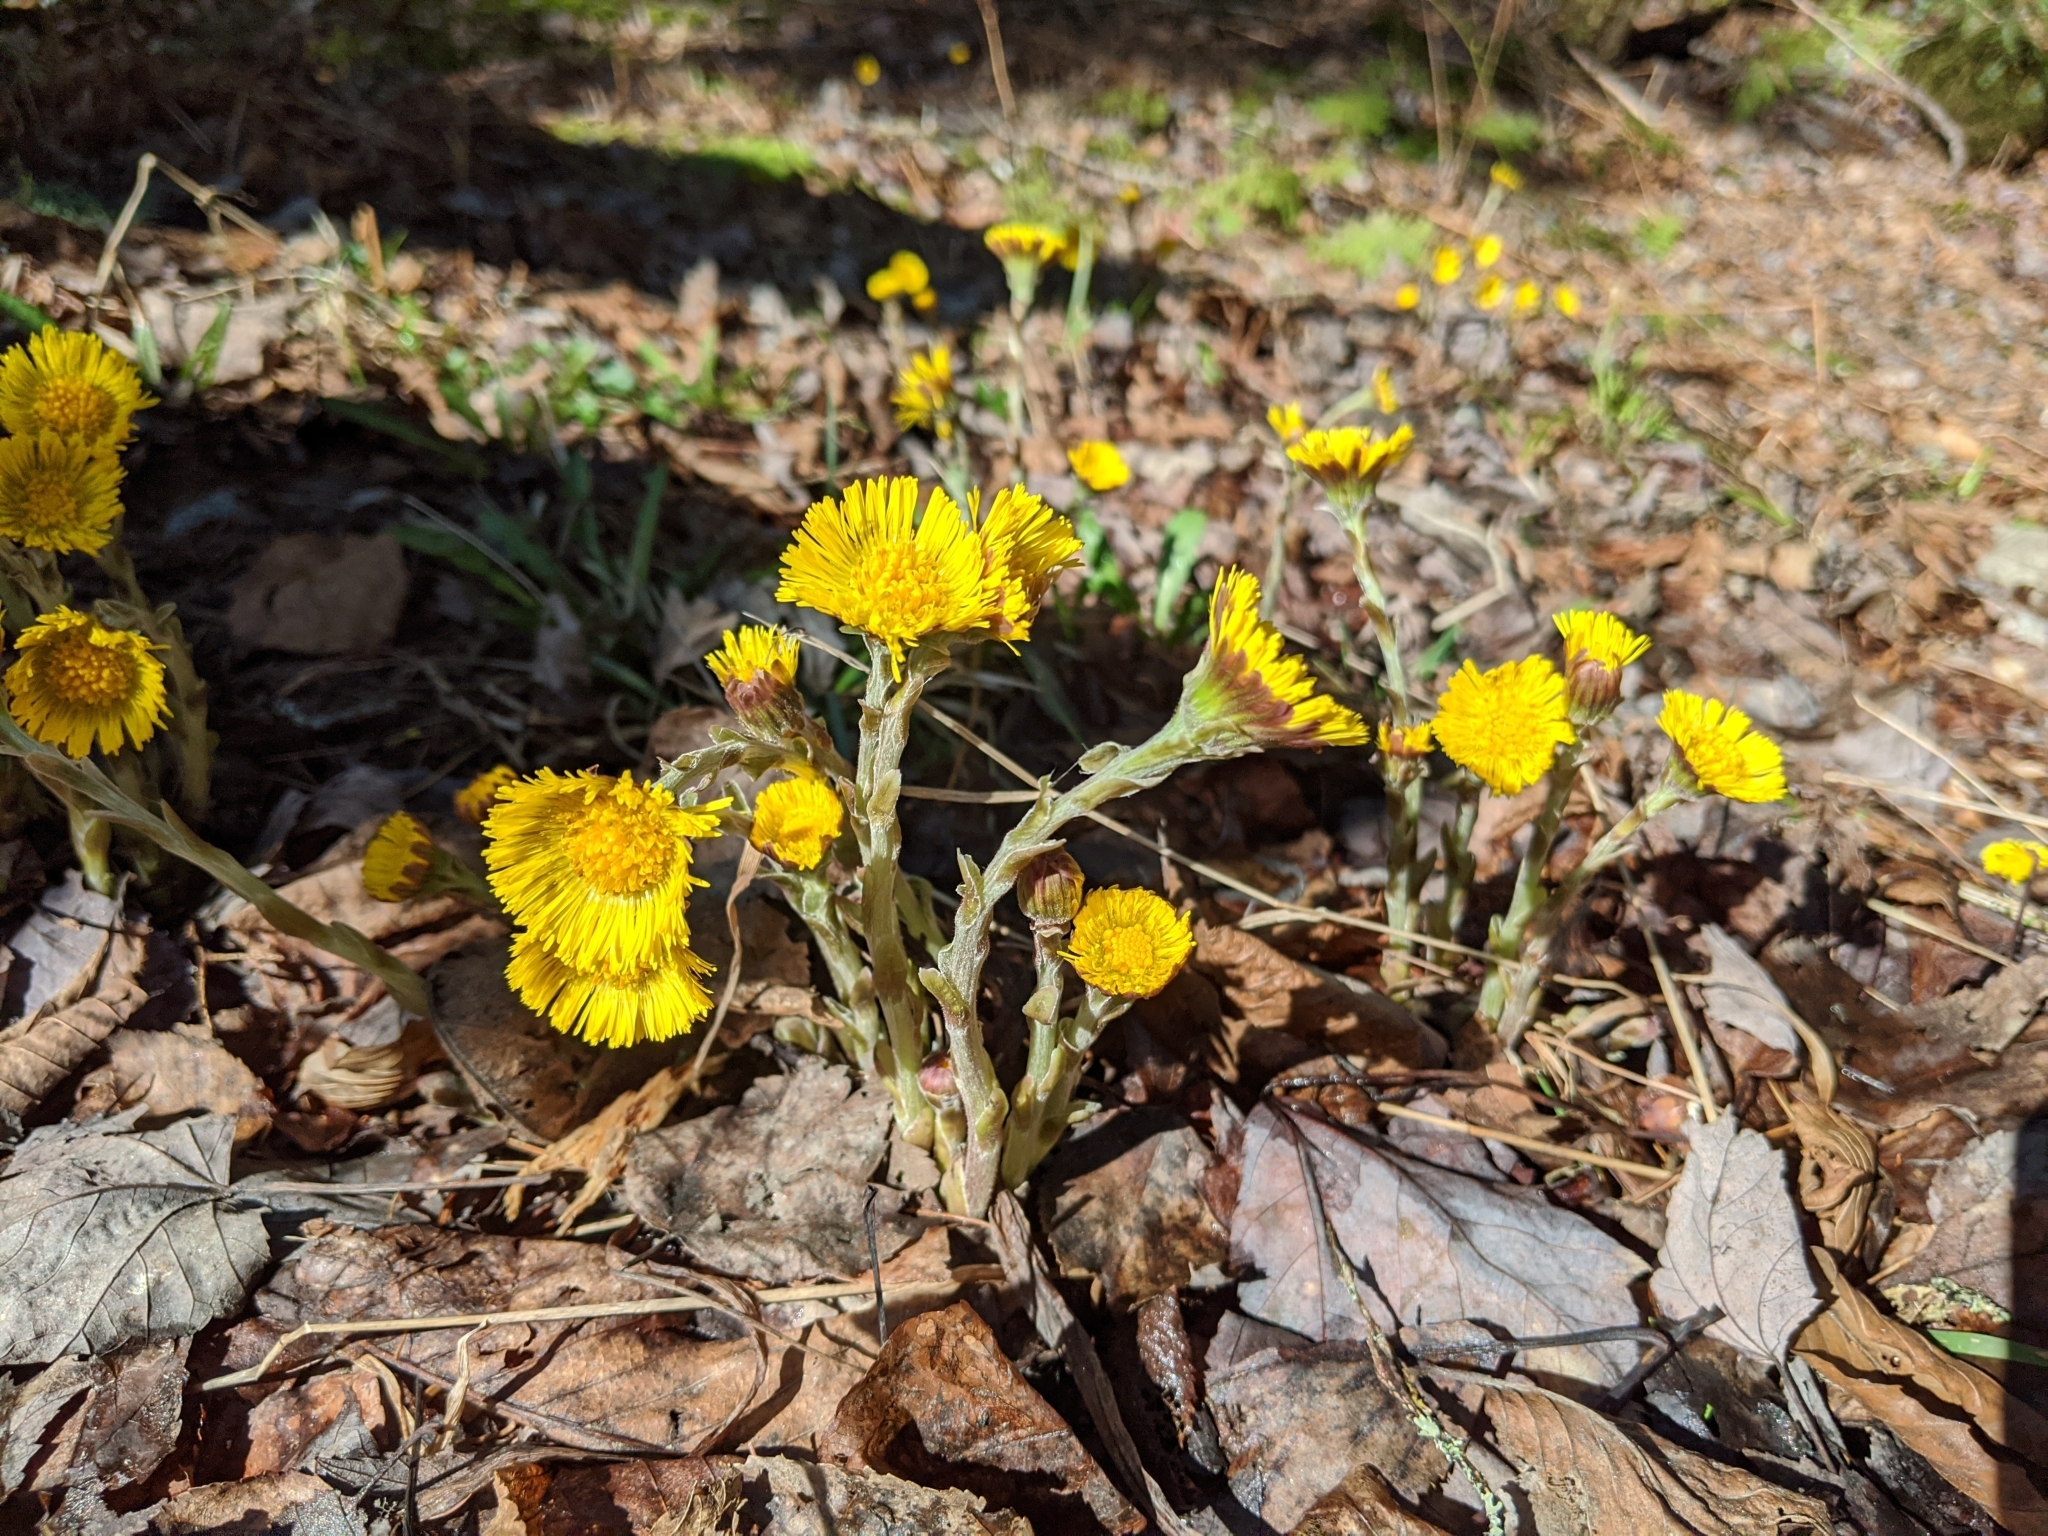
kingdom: Plantae
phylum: Tracheophyta
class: Magnoliopsida
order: Asterales
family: Asteraceae
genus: Tussilago
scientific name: Tussilago farfara
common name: Coltsfoot
